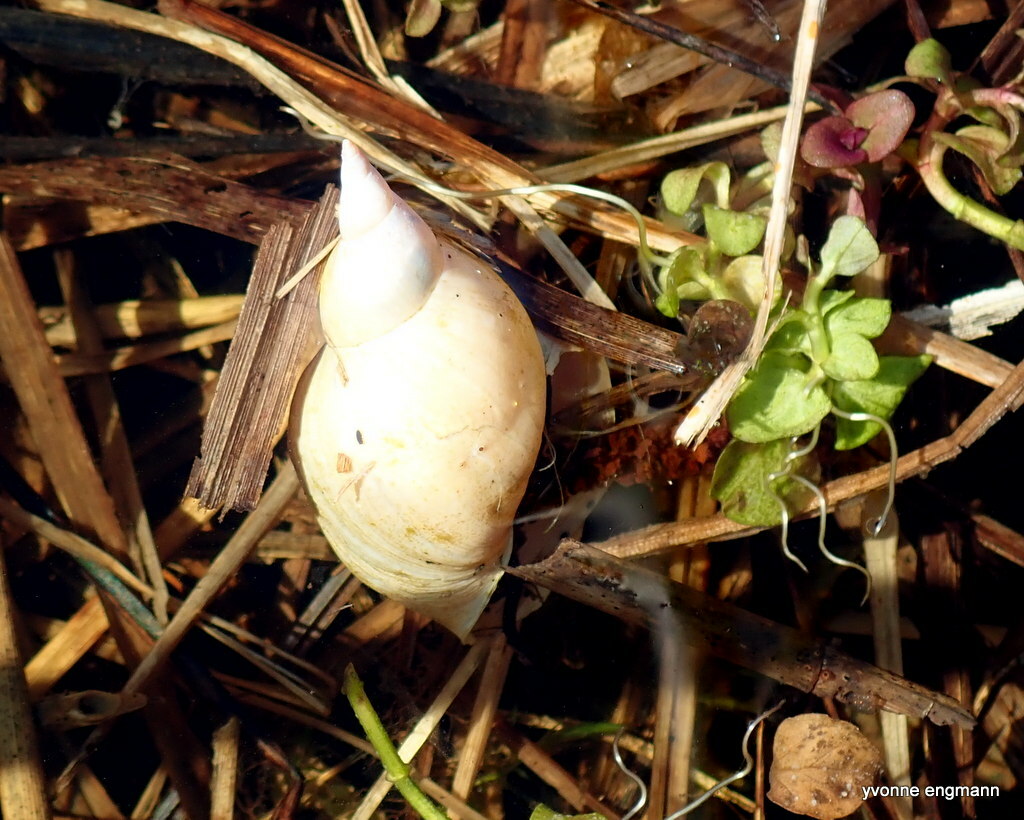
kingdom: Animalia
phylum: Mollusca
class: Gastropoda
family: Lymnaeidae
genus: Lymnaea
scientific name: Lymnaea stagnalis
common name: Great pond snail
